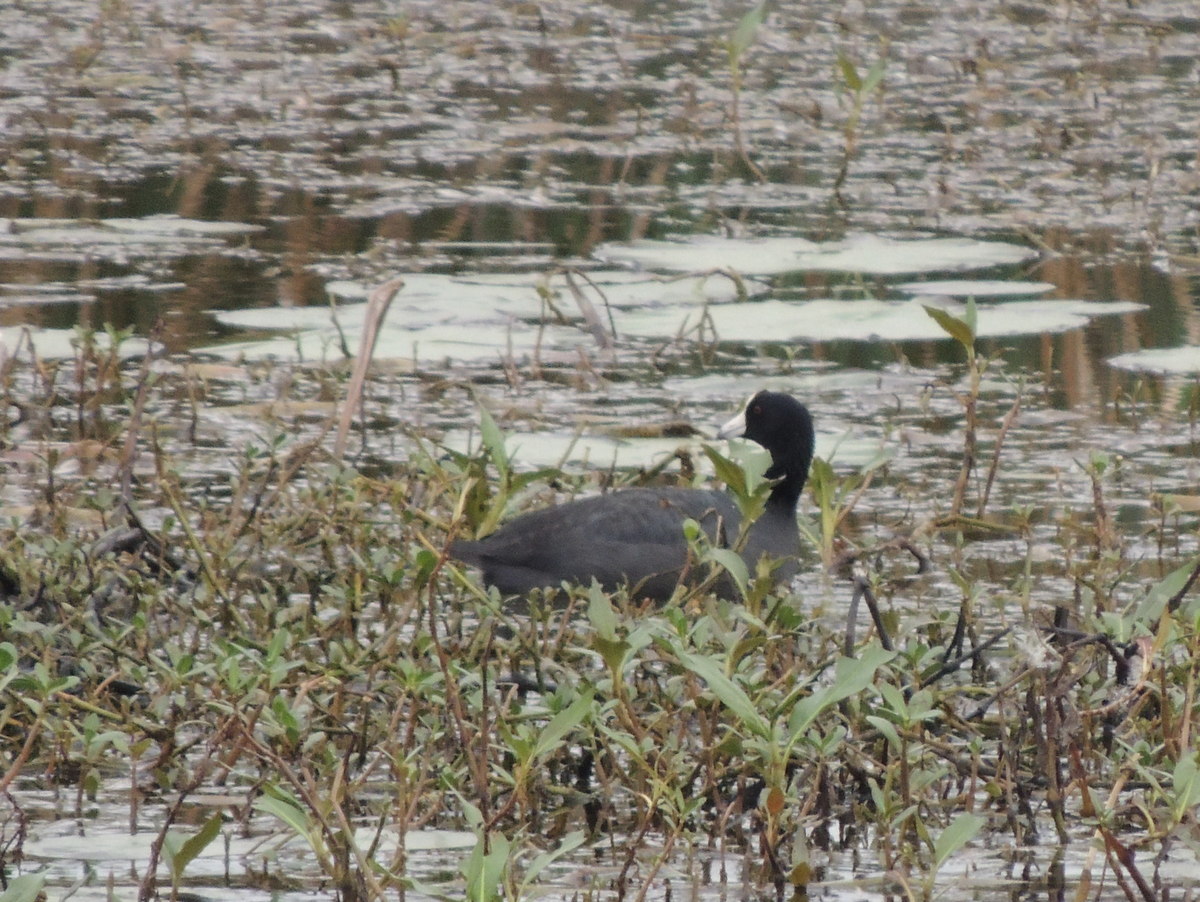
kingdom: Animalia
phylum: Chordata
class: Aves
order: Gruiformes
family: Rallidae
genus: Fulica
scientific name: Fulica americana
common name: American coot
